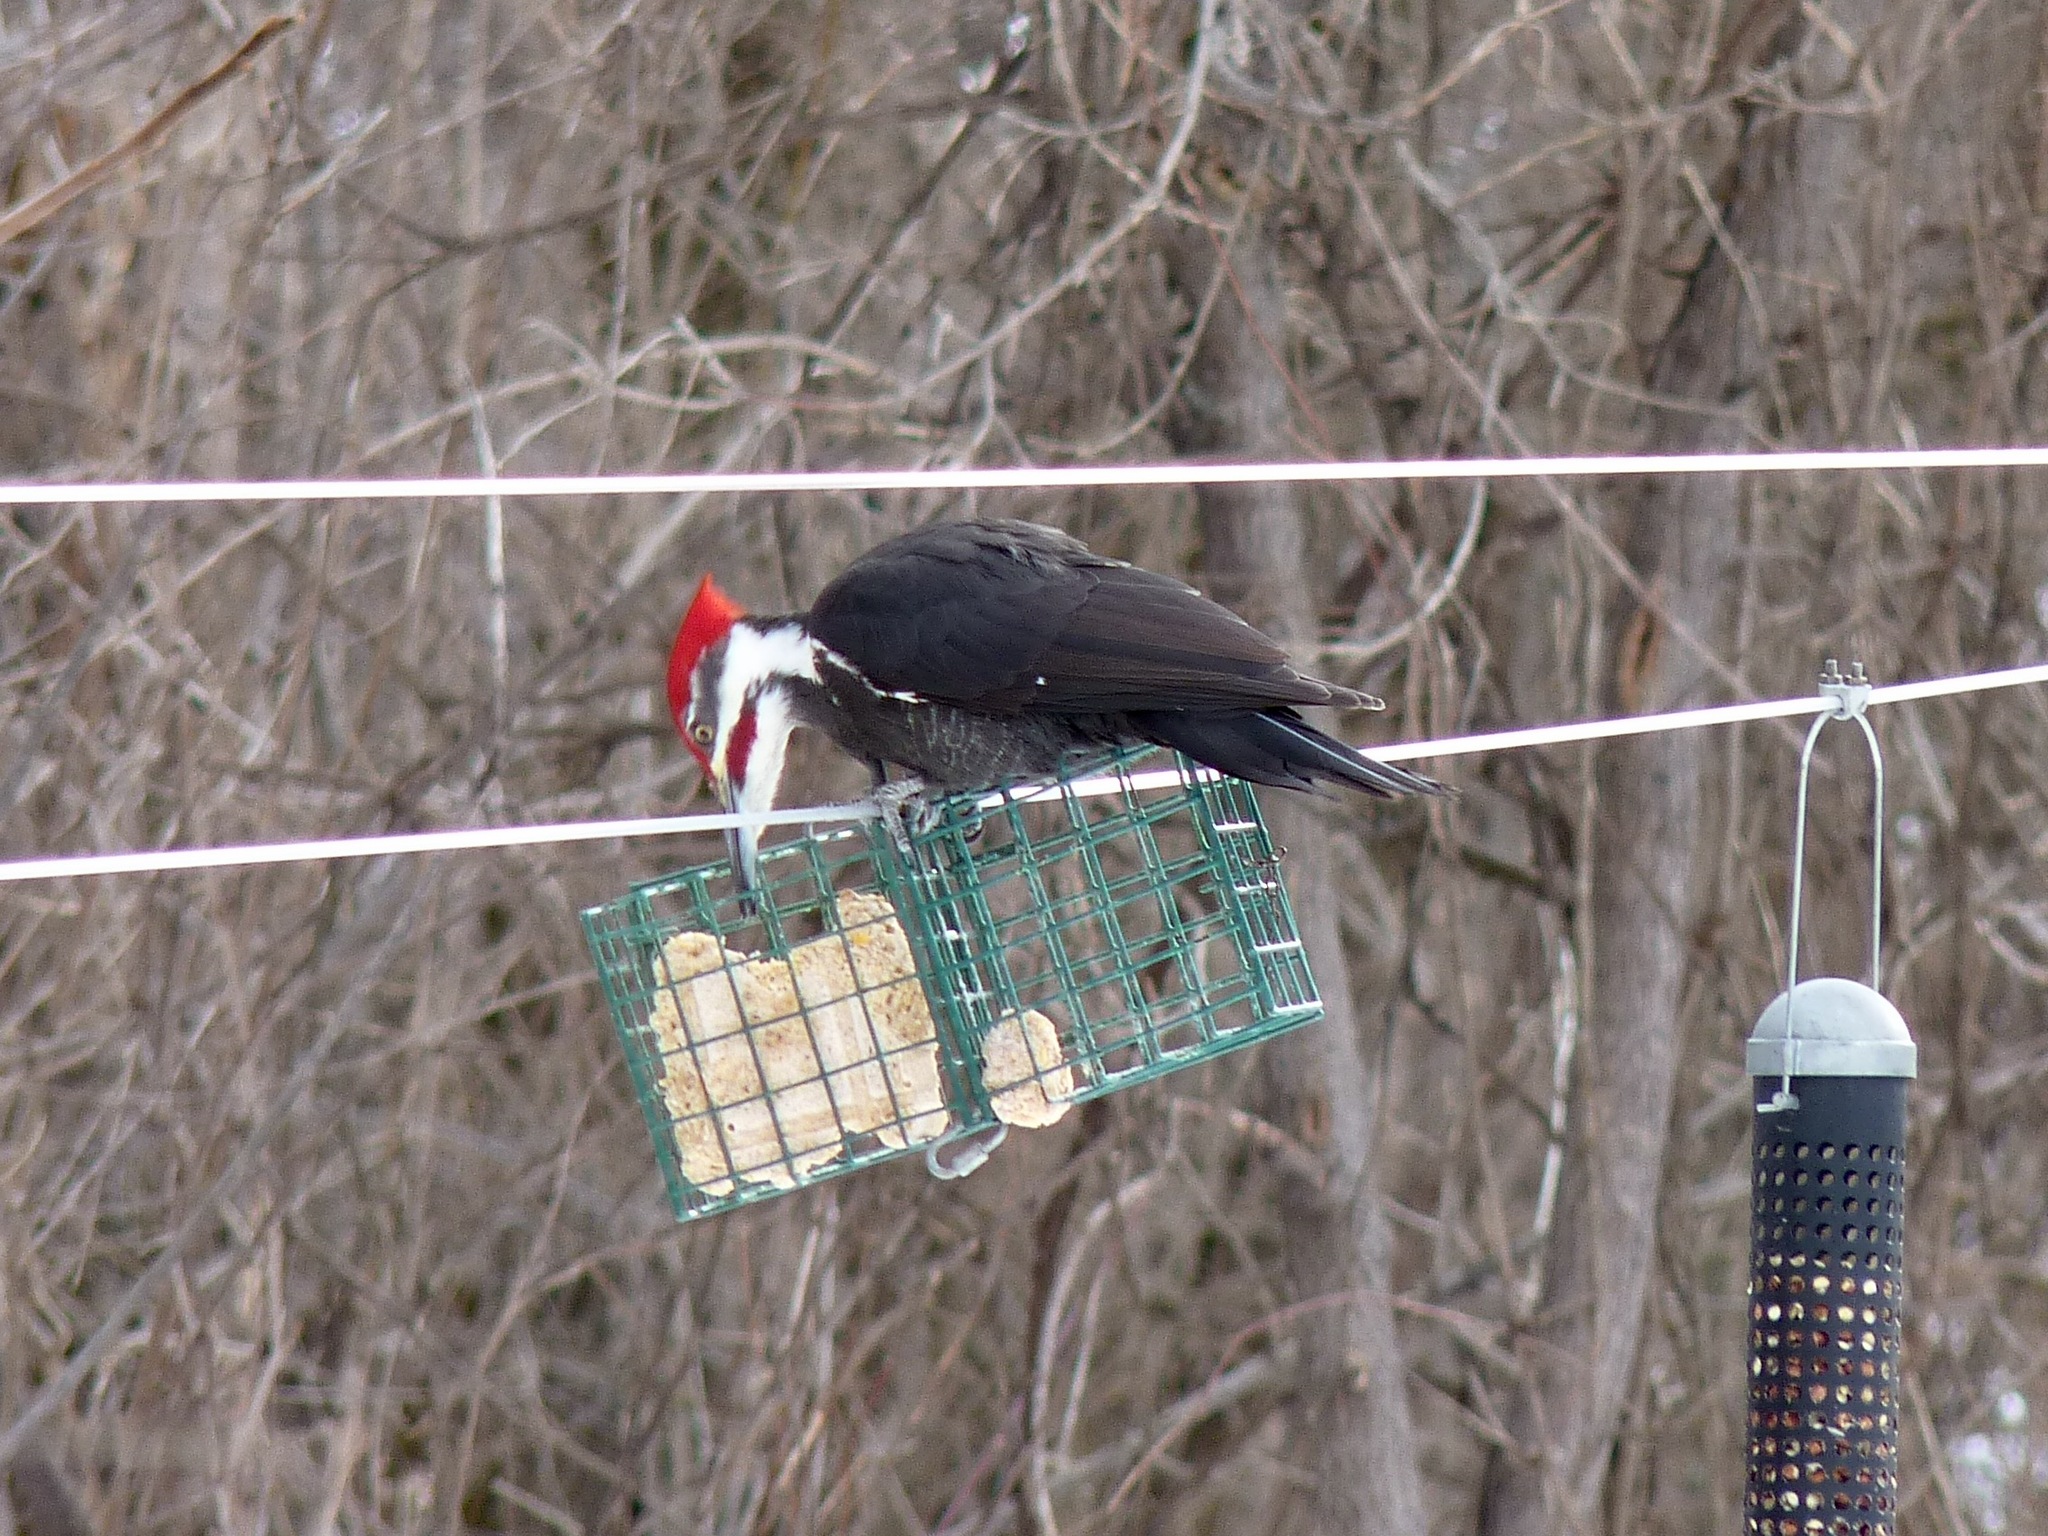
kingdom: Animalia
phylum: Chordata
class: Aves
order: Piciformes
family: Picidae
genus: Dryocopus
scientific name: Dryocopus pileatus
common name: Pileated woodpecker
